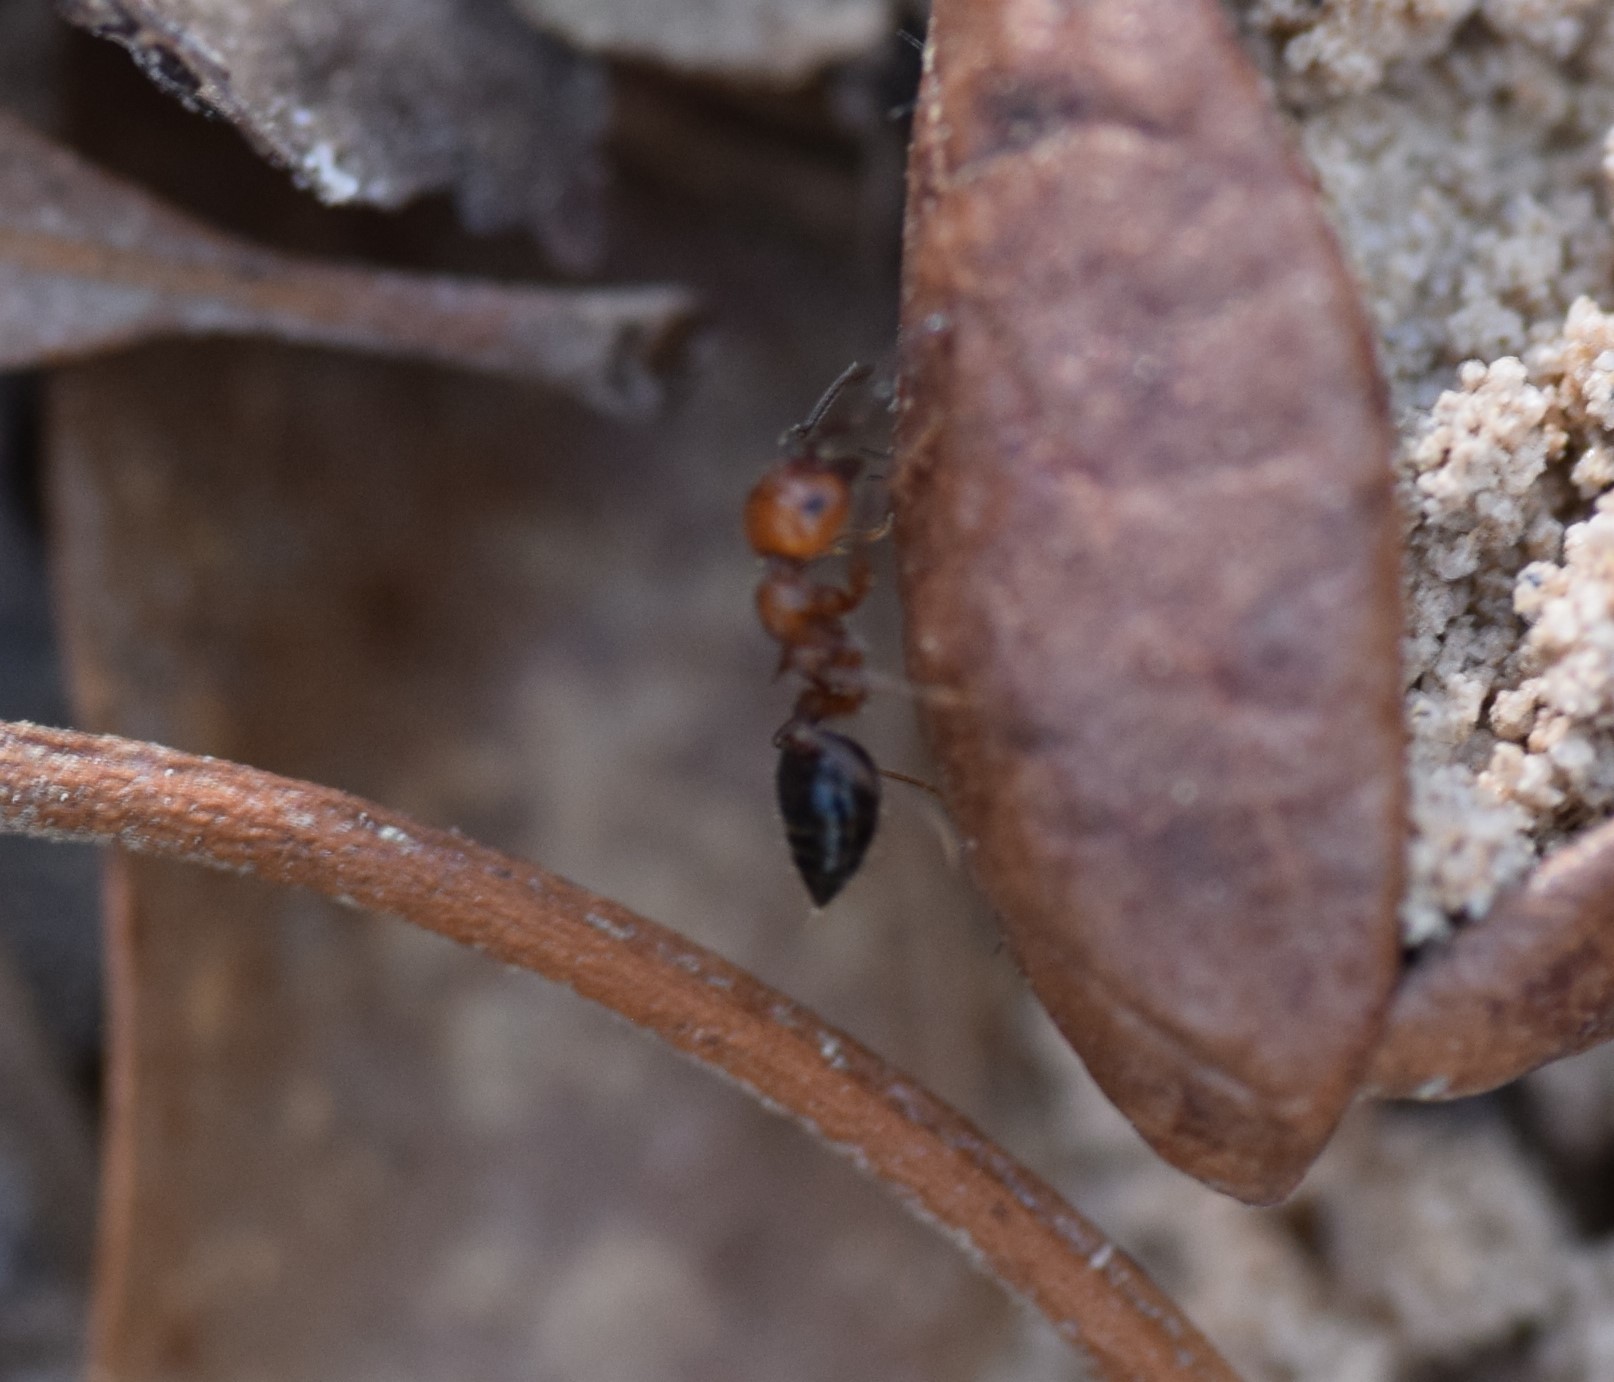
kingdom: Animalia
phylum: Arthropoda
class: Insecta
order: Hymenoptera
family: Formicidae
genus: Crematogaster
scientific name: Crematogaster laeviuscula
